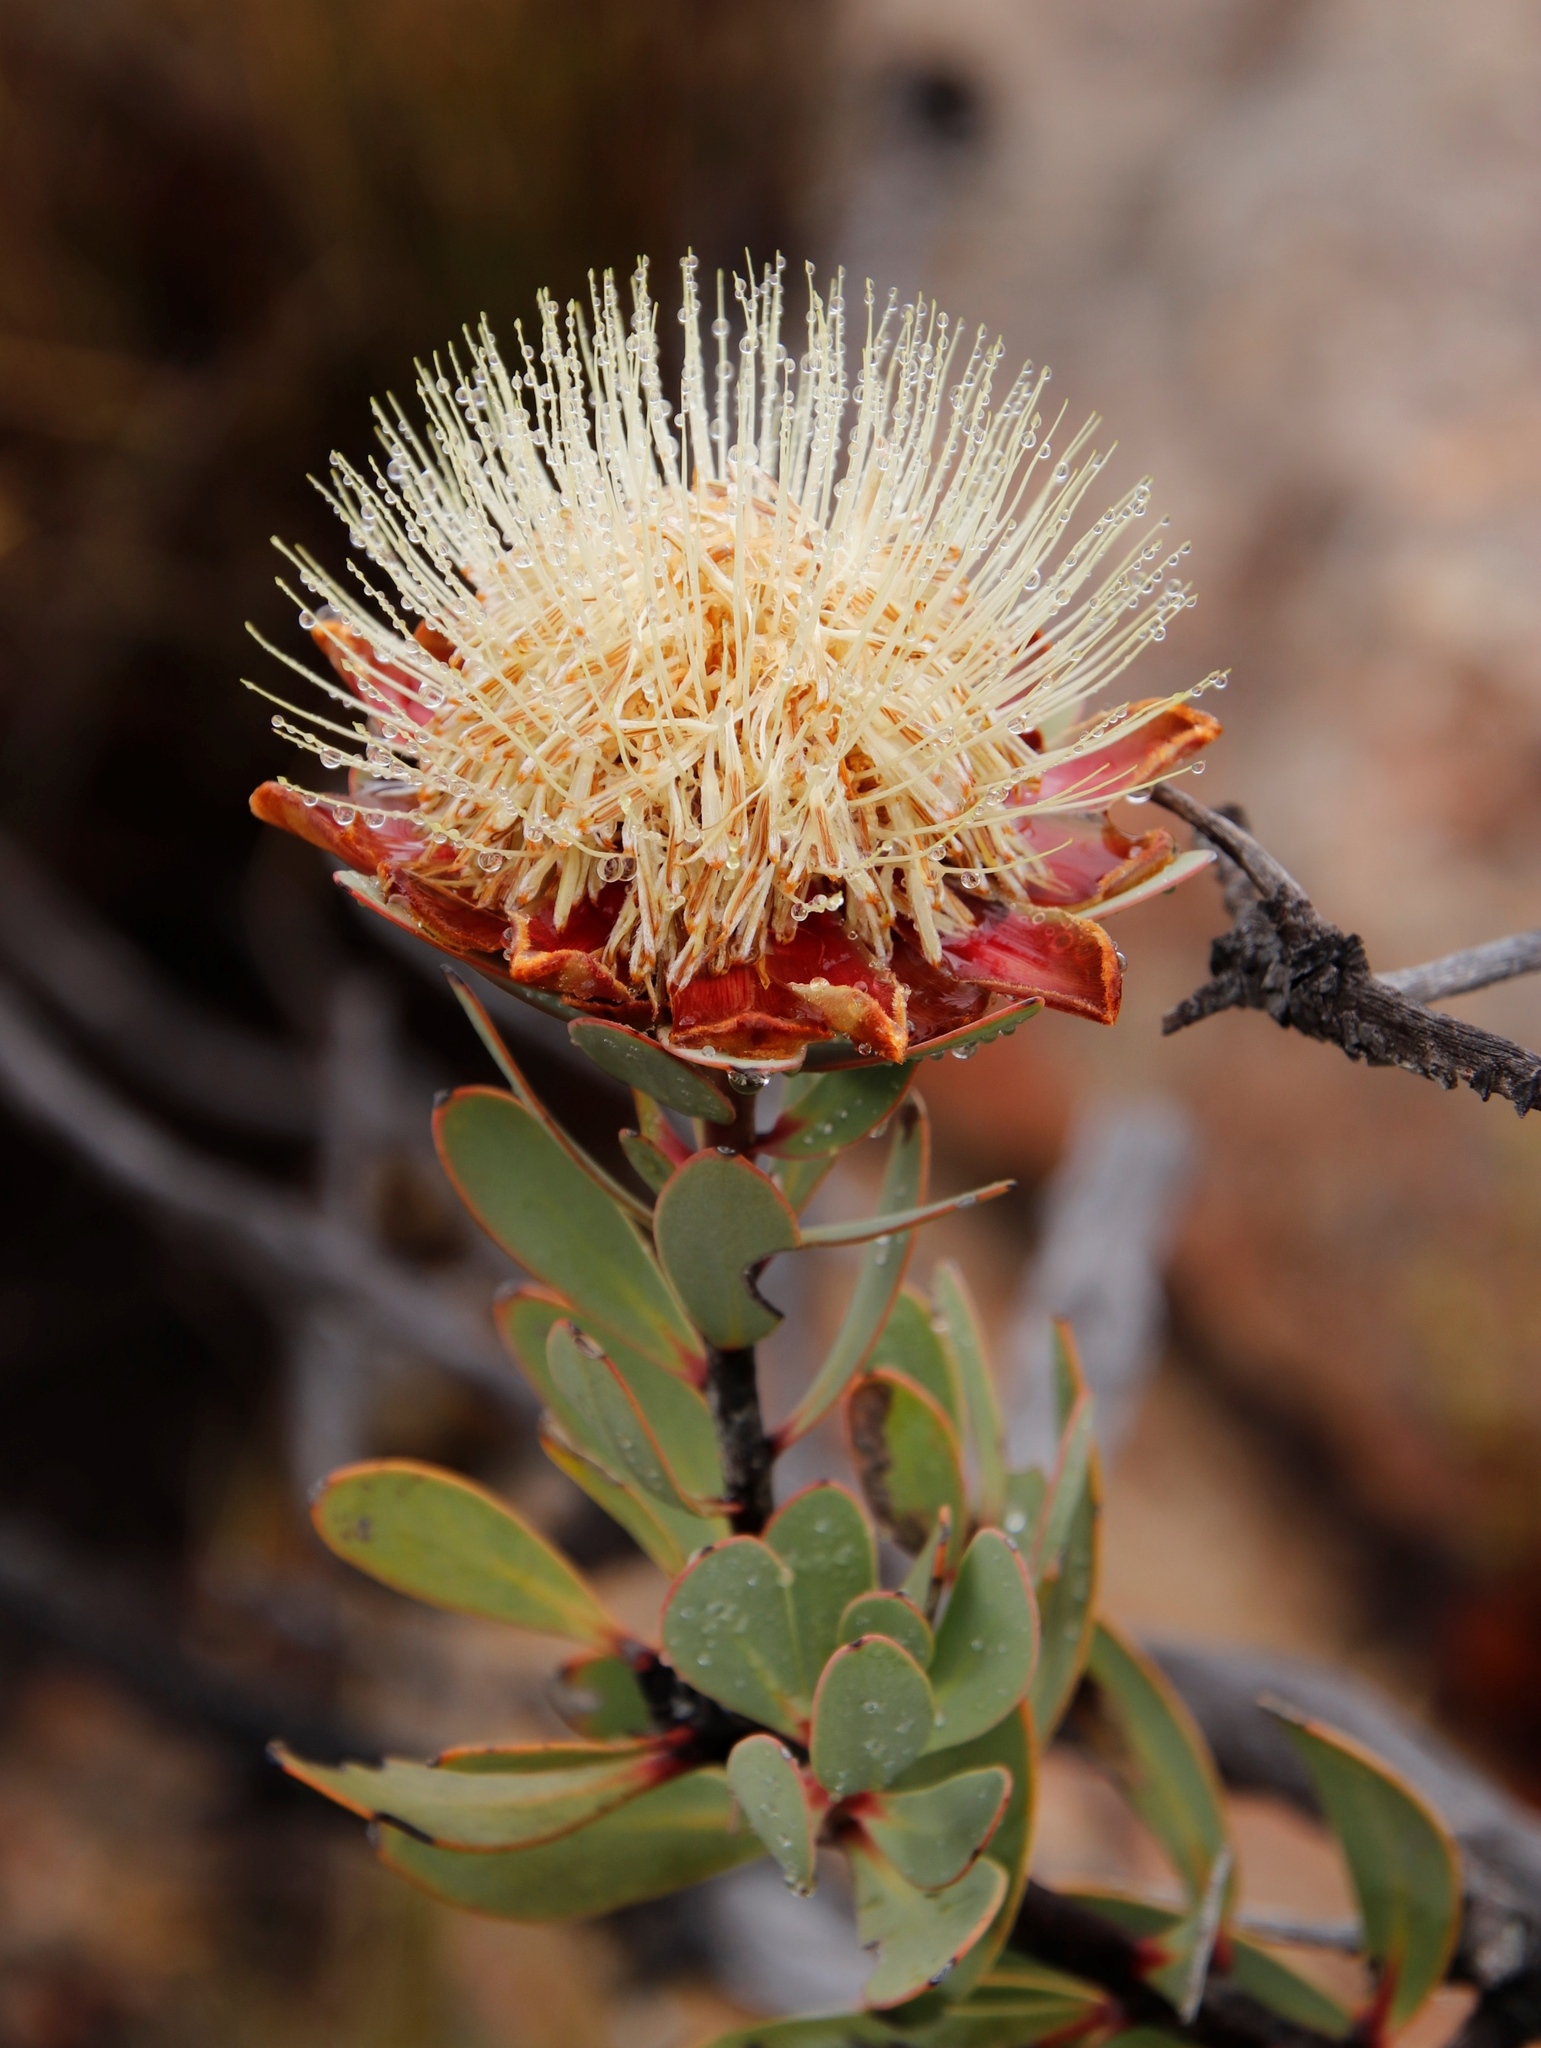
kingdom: Plantae
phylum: Tracheophyta
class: Magnoliopsida
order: Proteales
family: Proteaceae
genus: Protea
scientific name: Protea glabra
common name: Chestnut sugarbush
